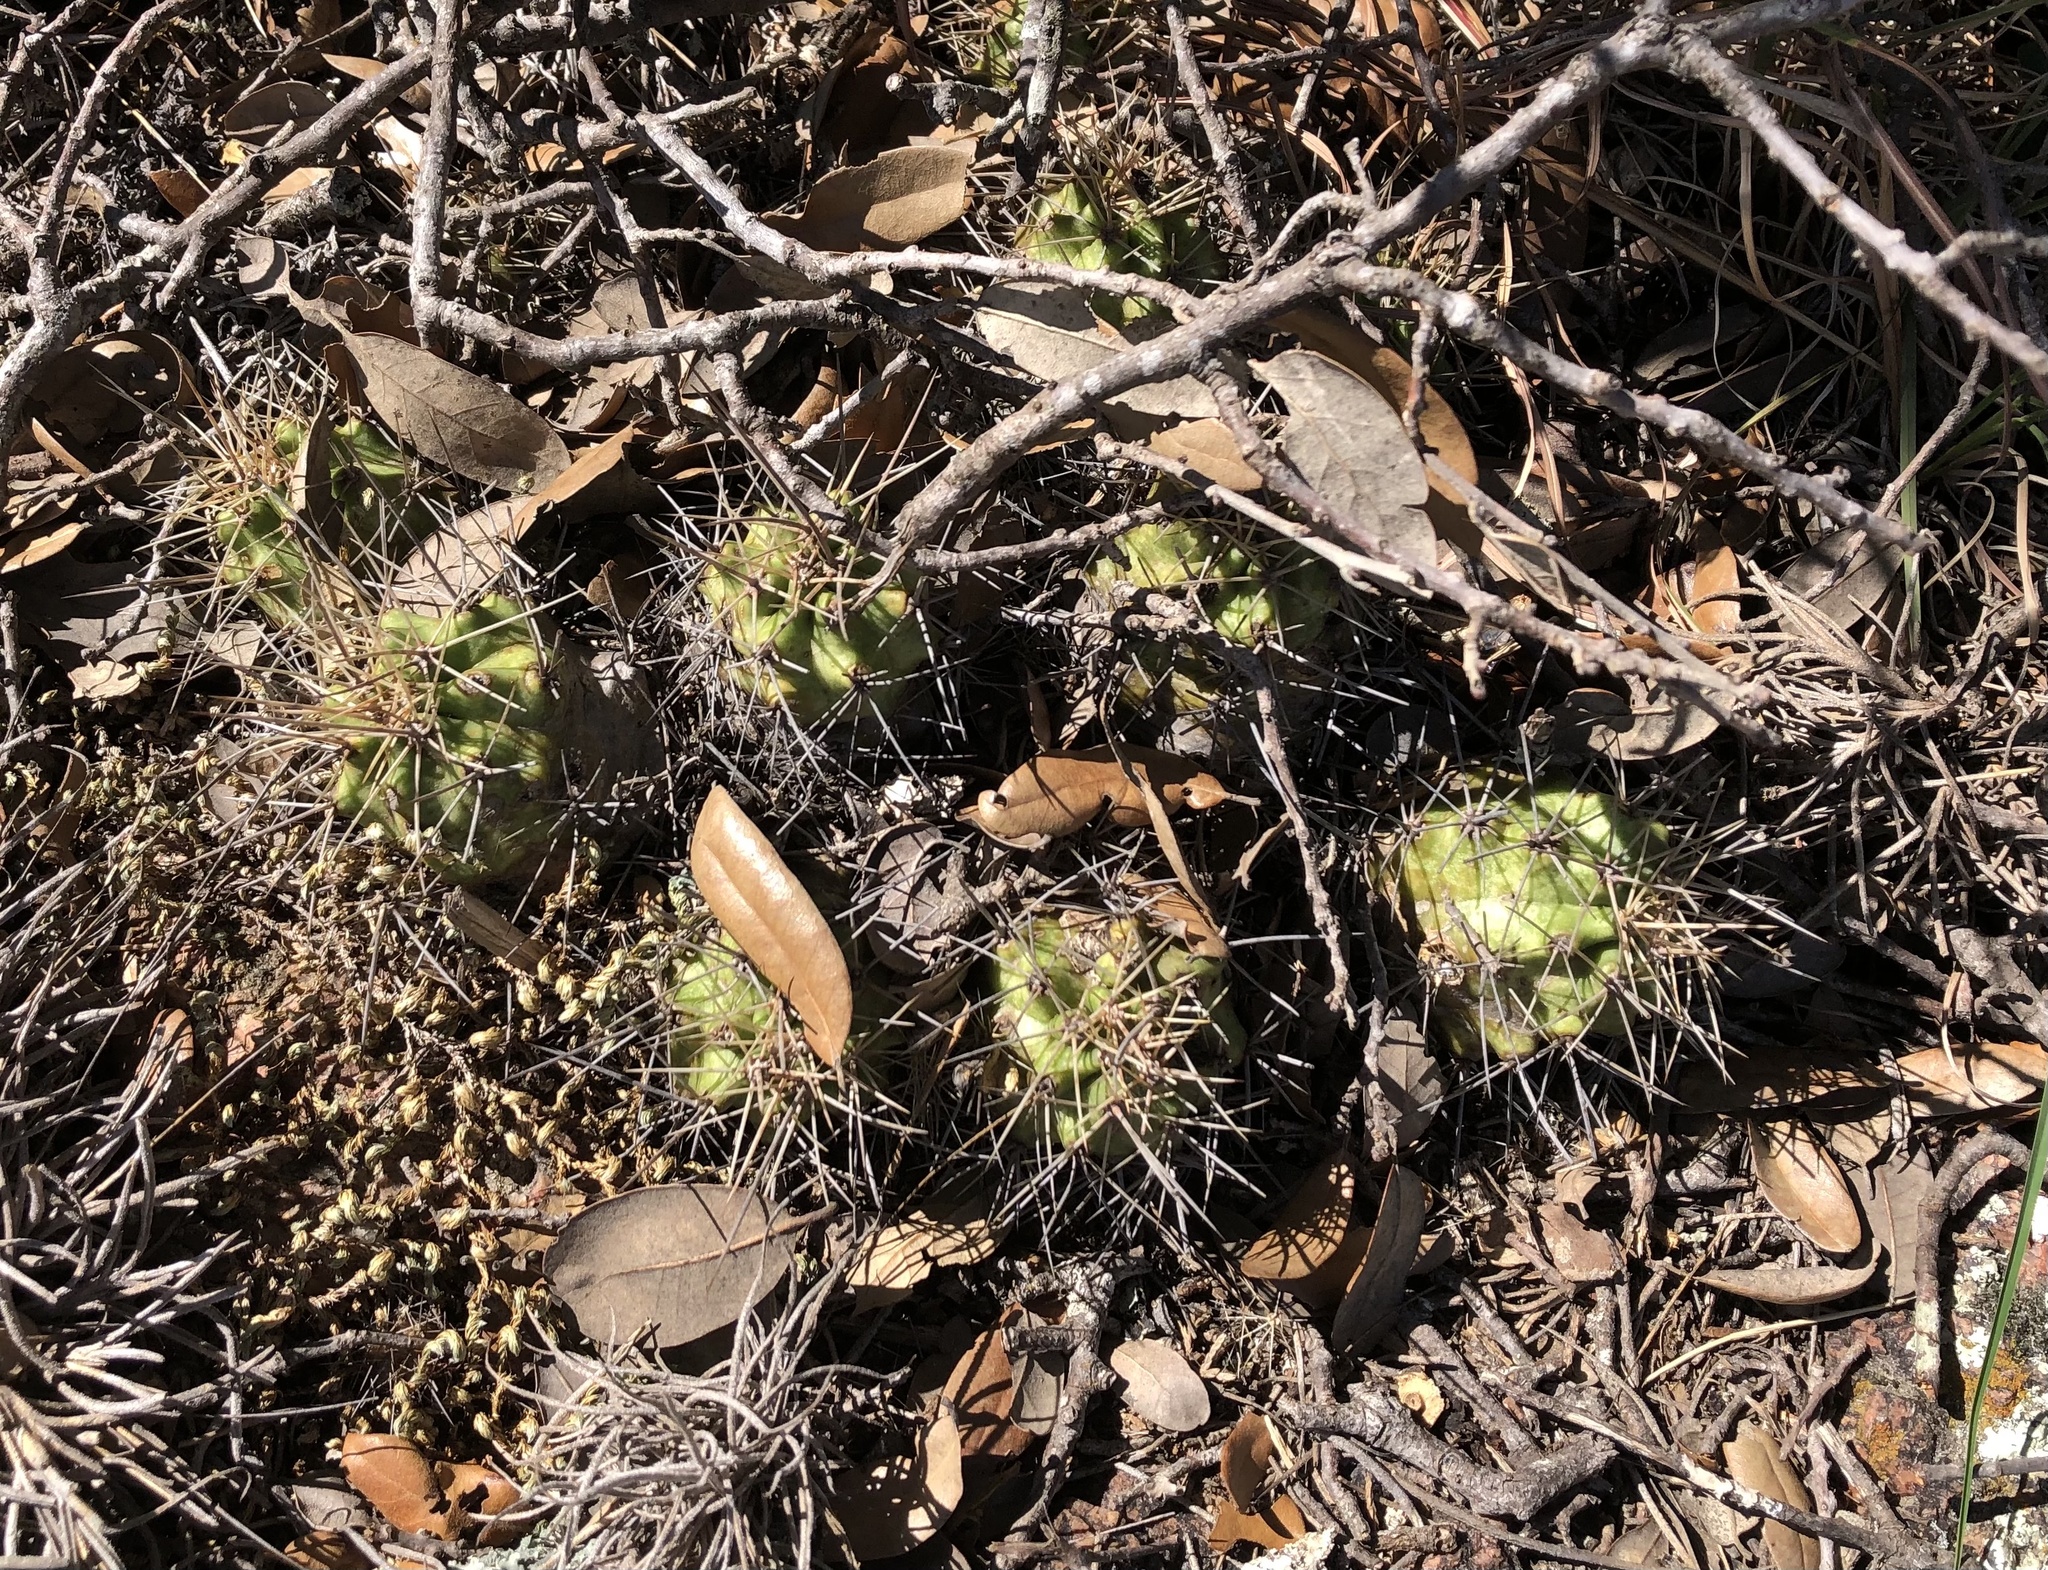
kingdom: Plantae
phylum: Tracheophyta
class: Magnoliopsida
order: Caryophyllales
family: Cactaceae
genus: Echinocereus
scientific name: Echinocereus coccineus
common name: Scarlet hedgehog cactus
